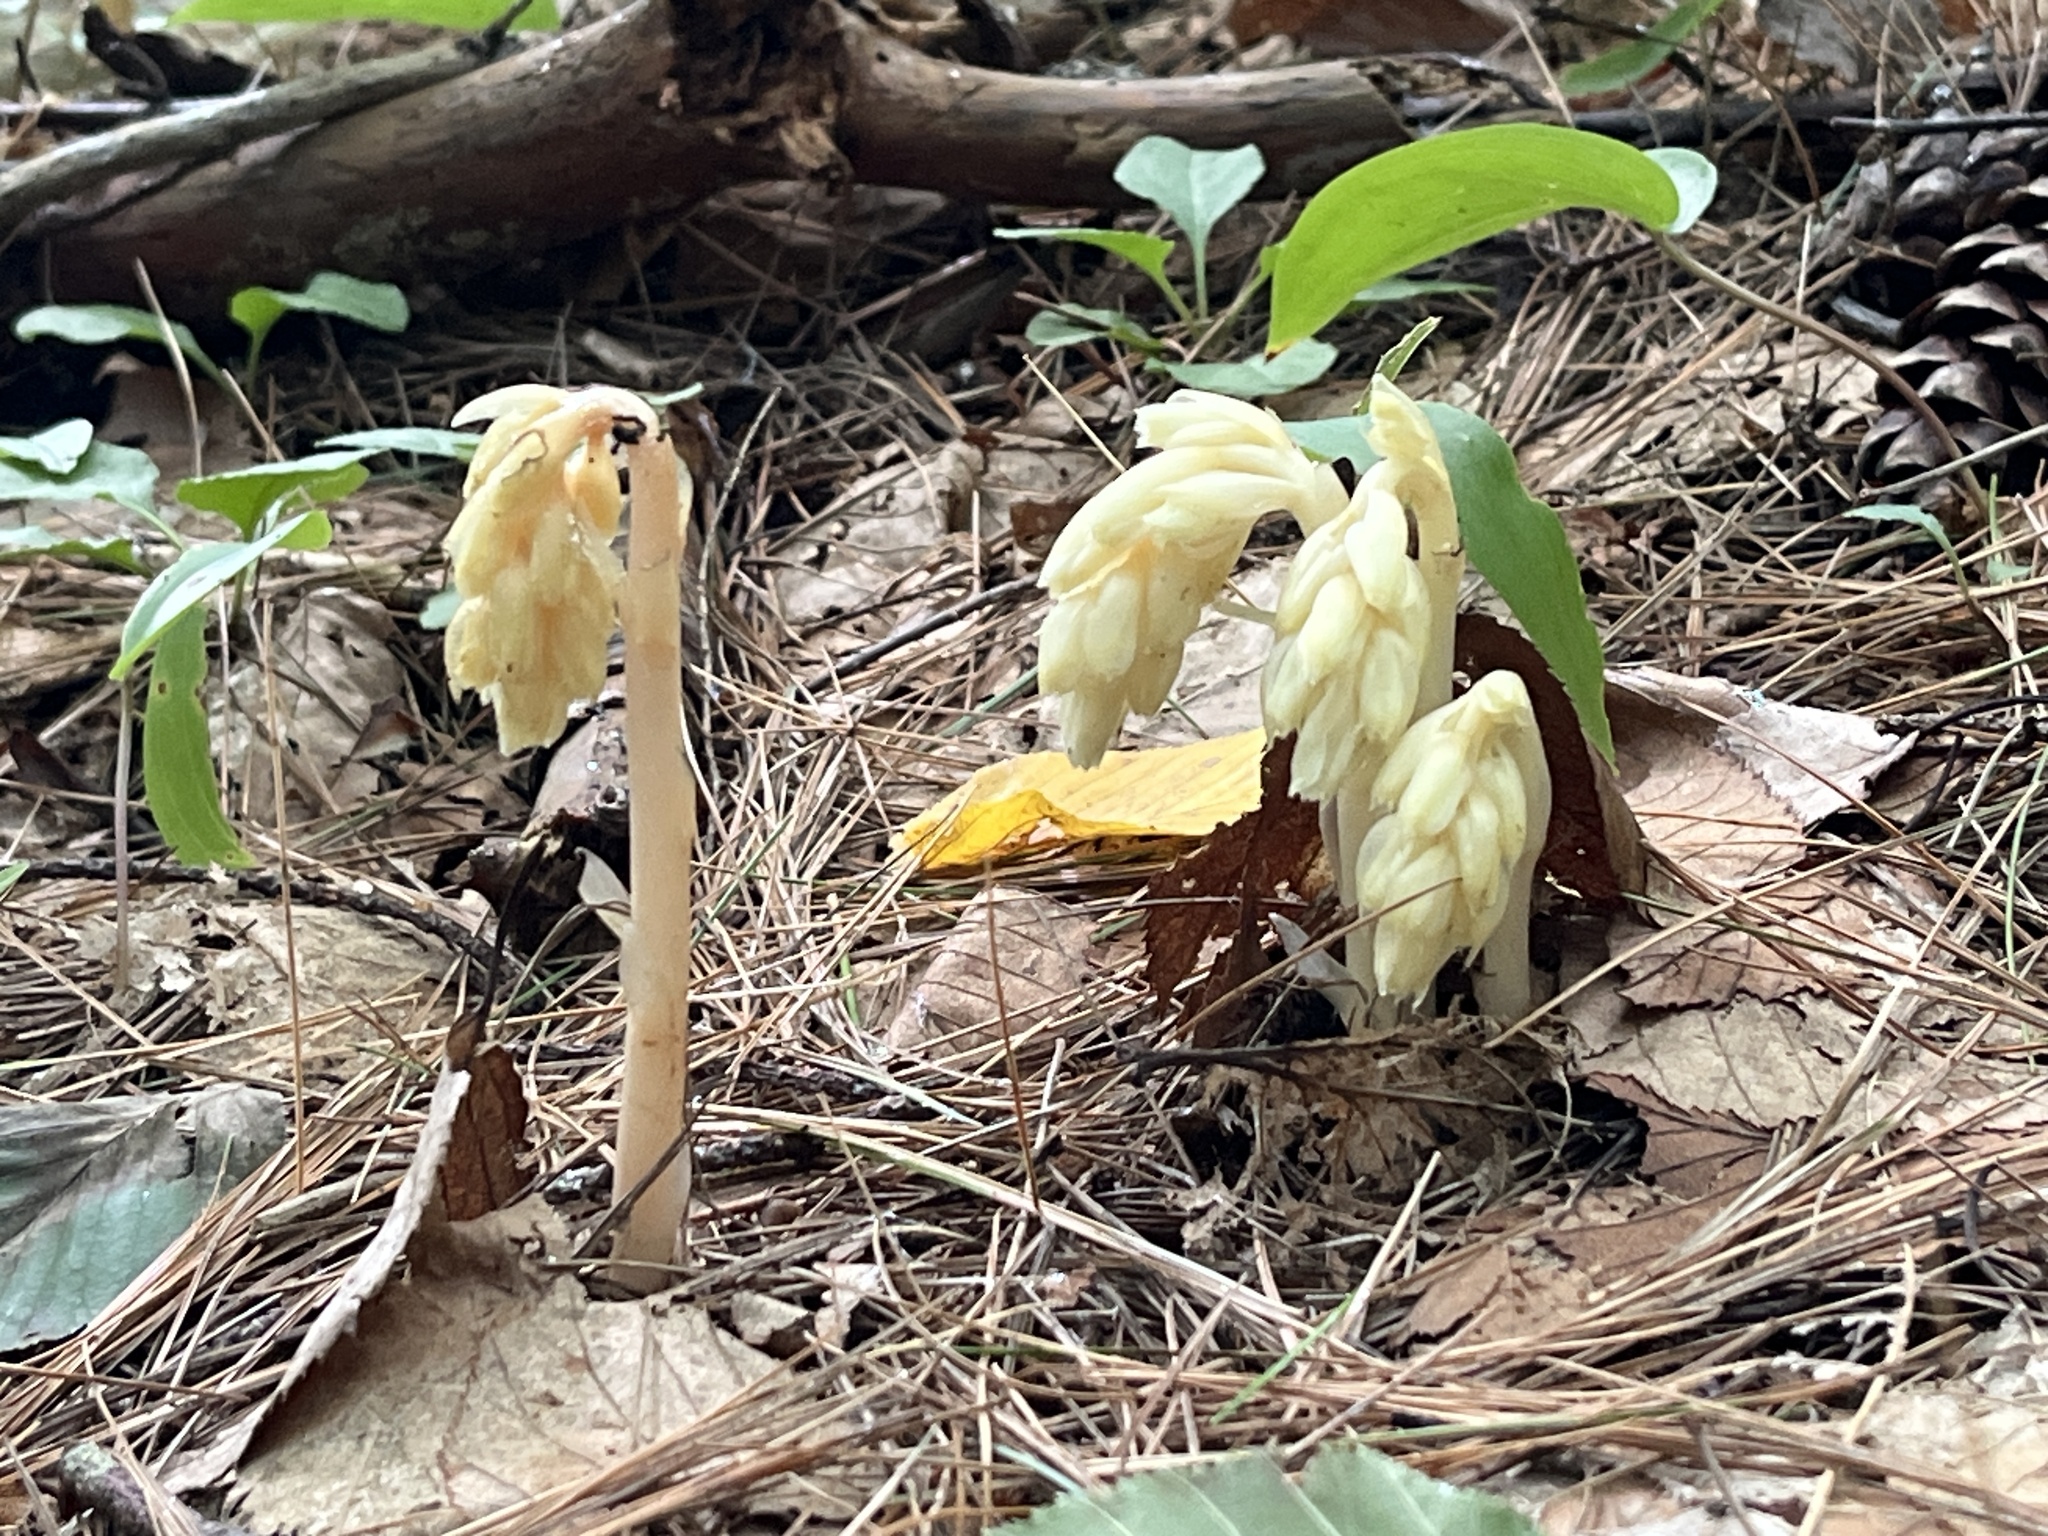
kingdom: Plantae
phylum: Tracheophyta
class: Magnoliopsida
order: Ericales
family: Ericaceae
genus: Hypopitys
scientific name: Hypopitys monotropa
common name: Yellow bird's-nest
